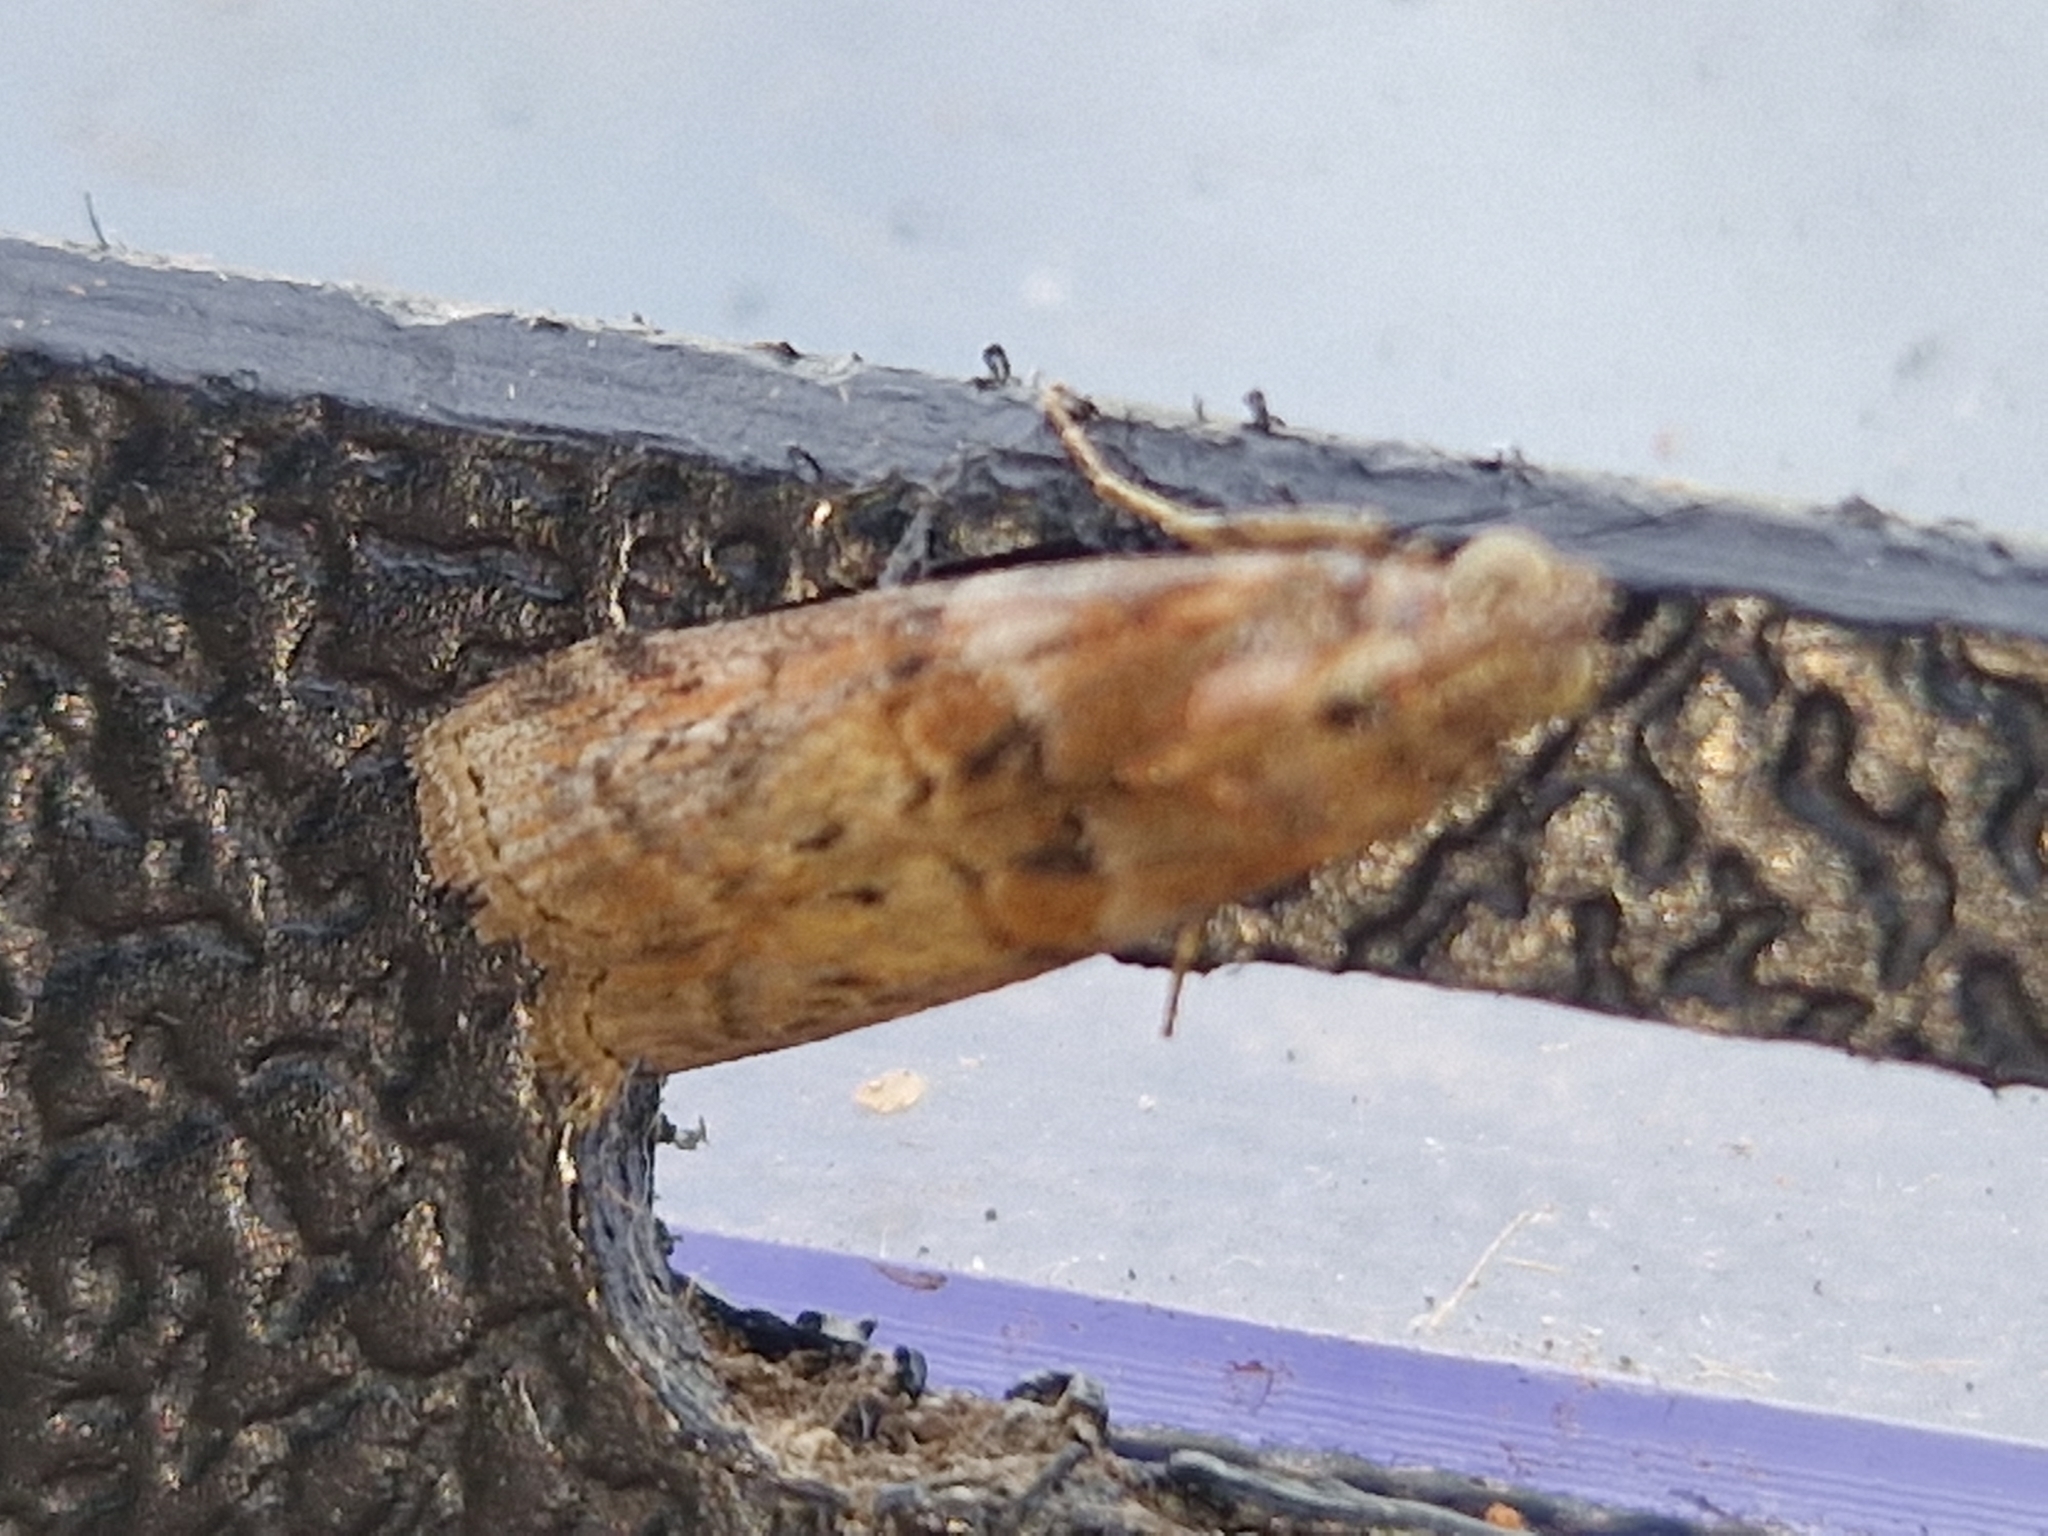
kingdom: Animalia
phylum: Arthropoda
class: Insecta
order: Lepidoptera
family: Pyralidae
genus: Phycita
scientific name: Phycita roborella
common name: Dotted oak knot-horn
